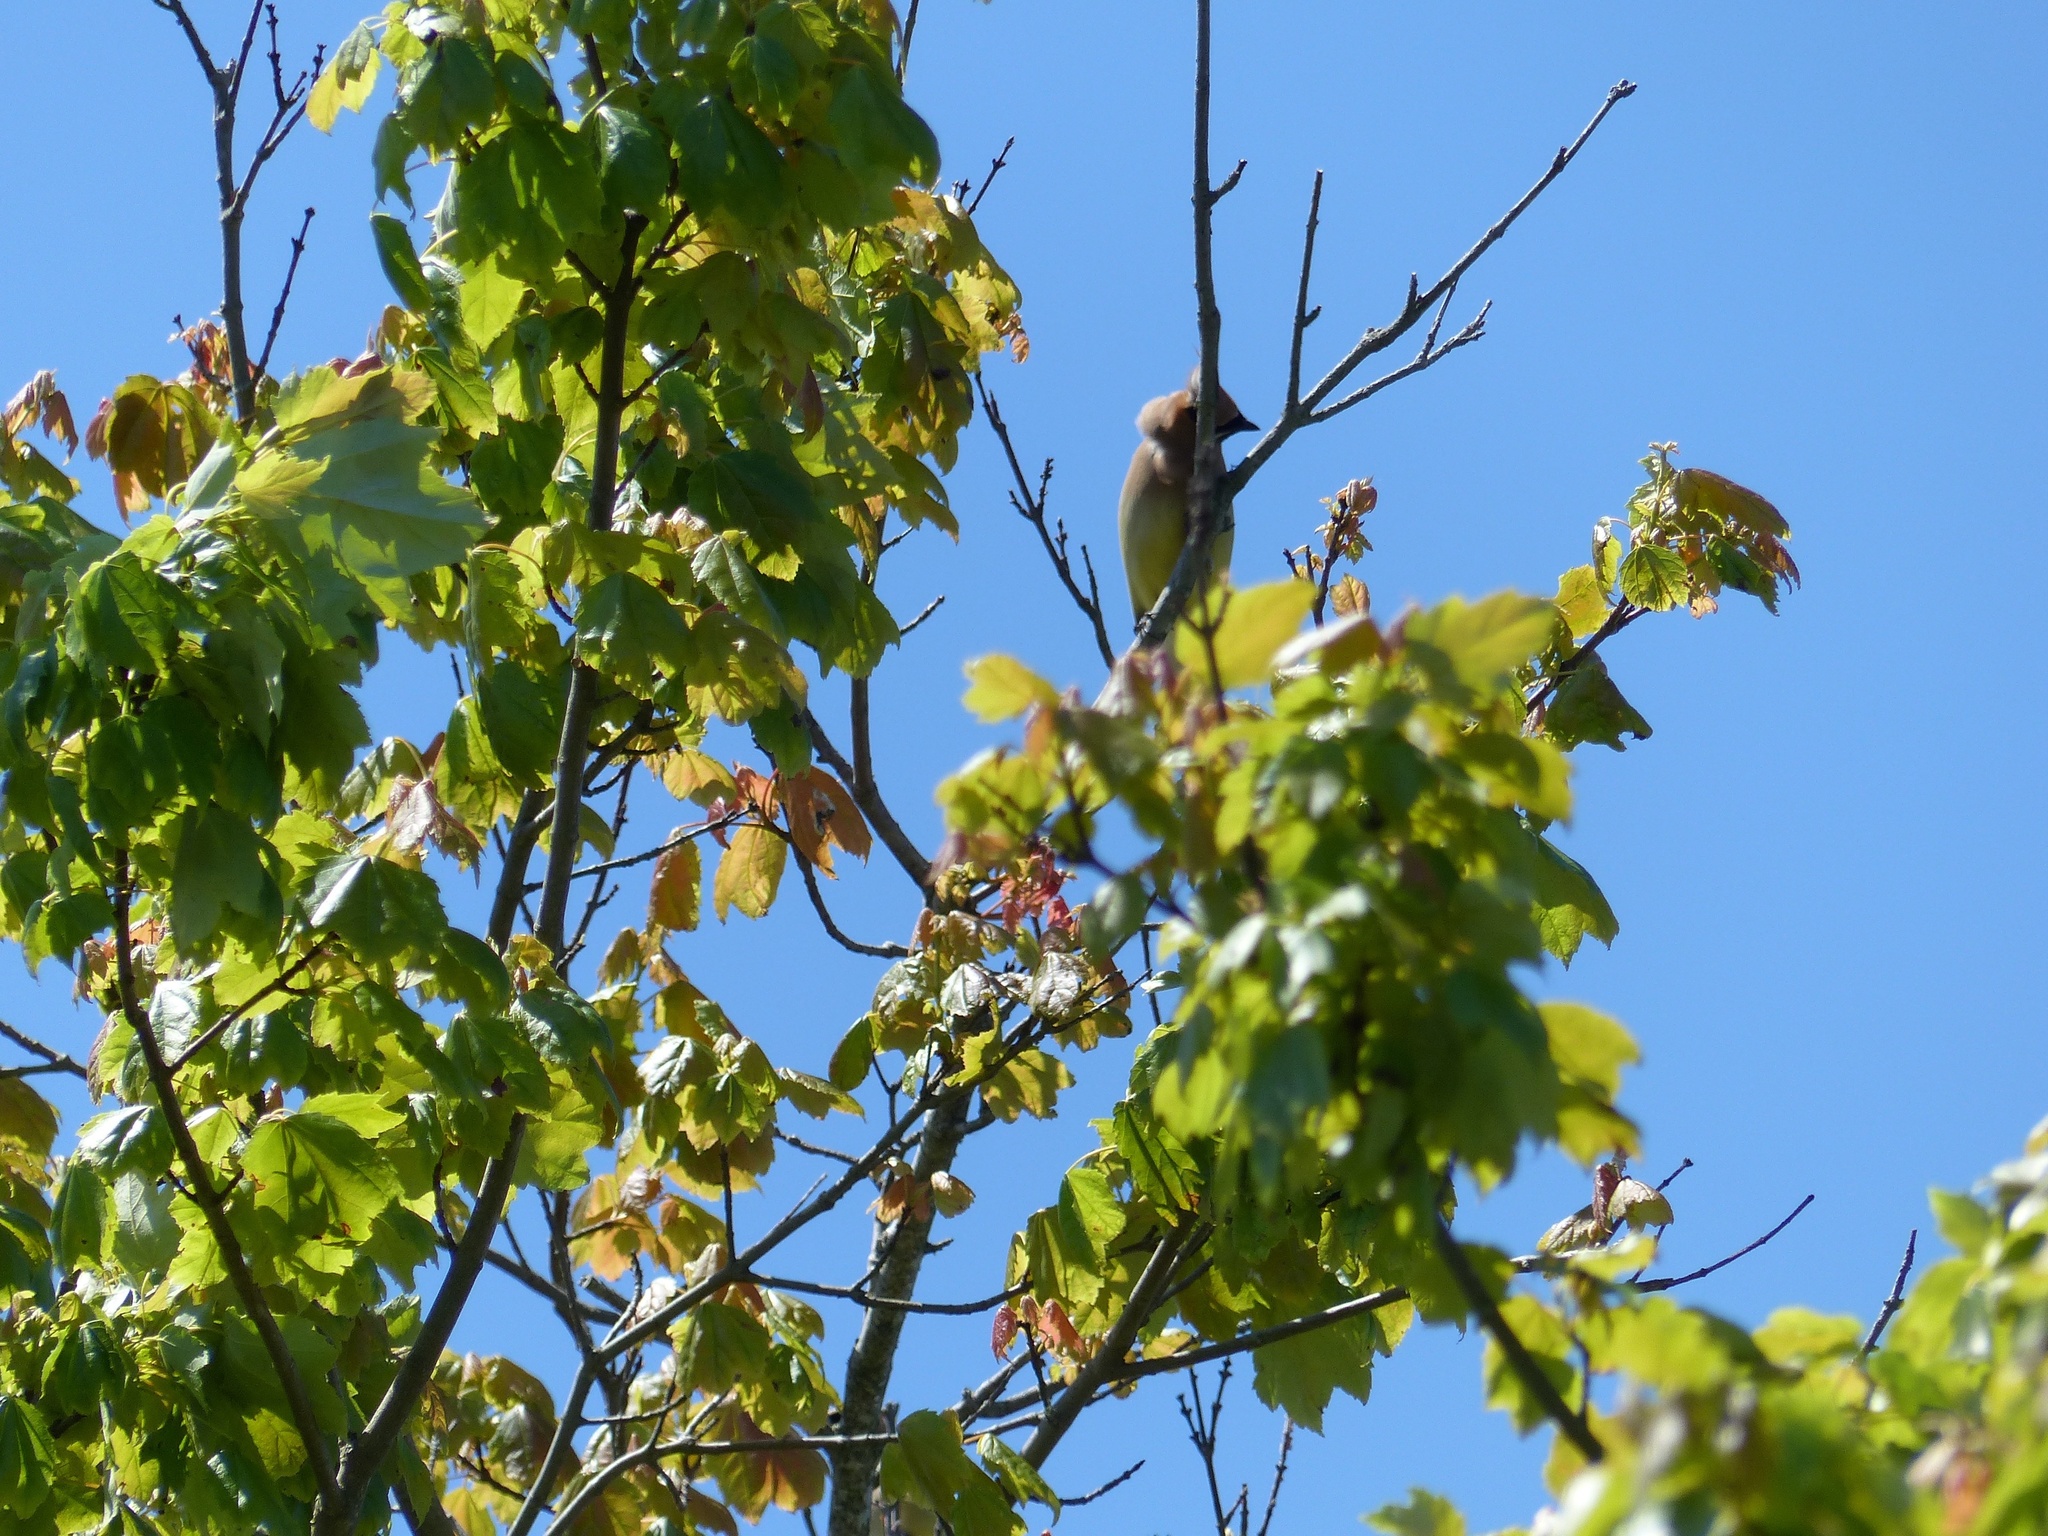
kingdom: Animalia
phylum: Chordata
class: Aves
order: Passeriformes
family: Bombycillidae
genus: Bombycilla
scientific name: Bombycilla cedrorum
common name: Cedar waxwing
